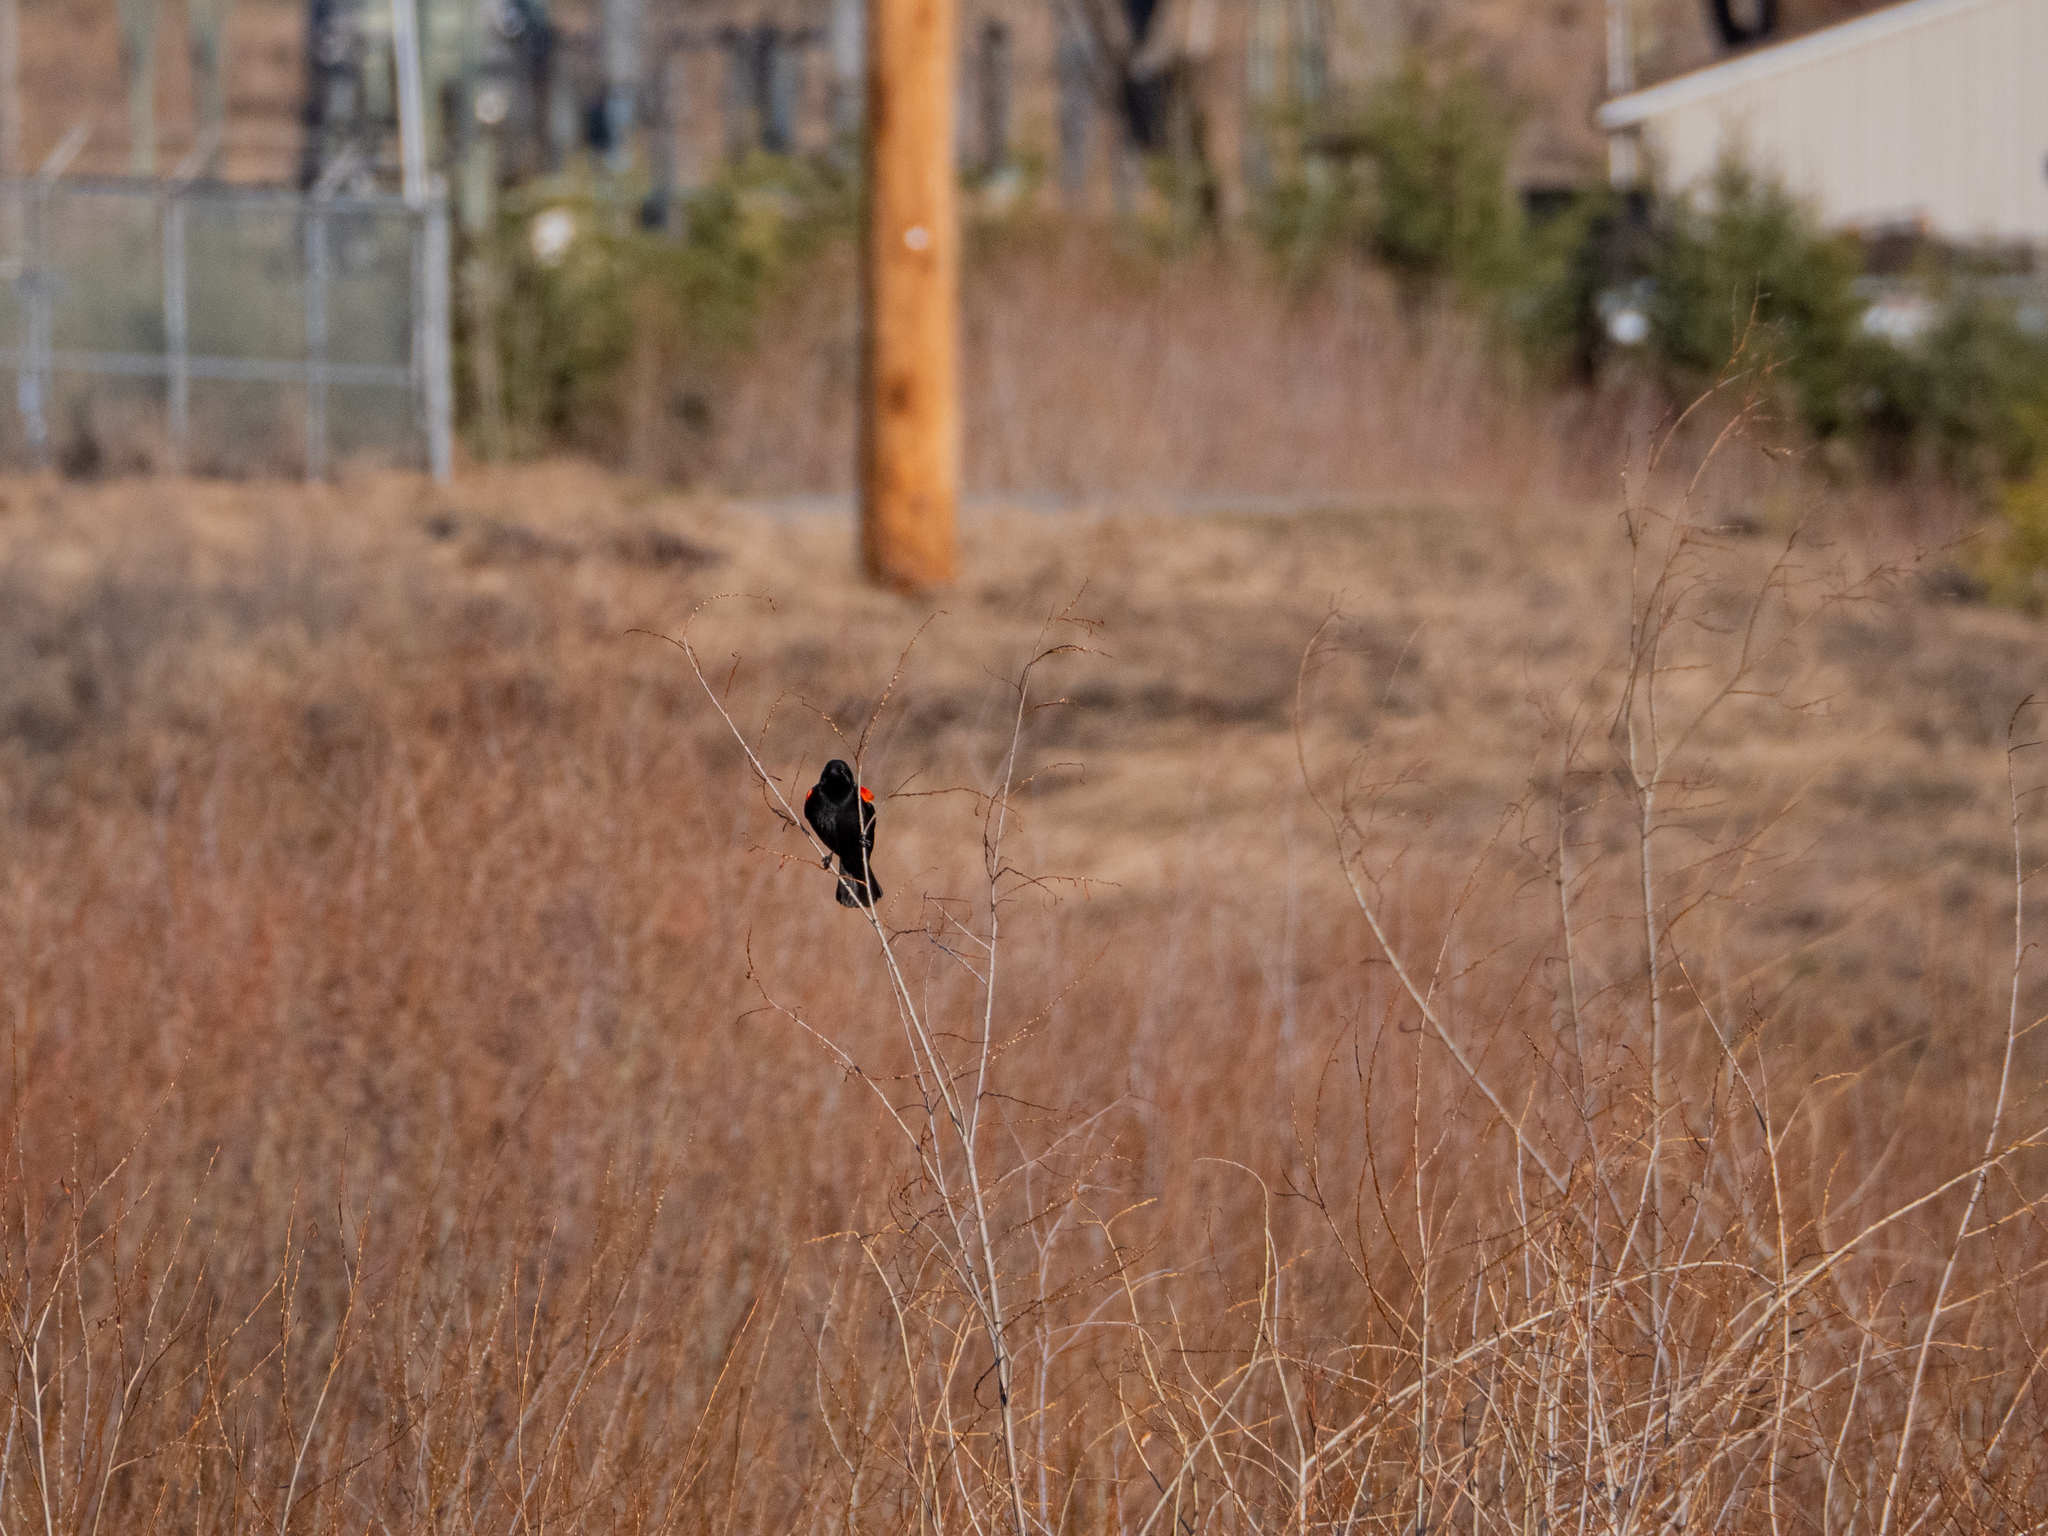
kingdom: Animalia
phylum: Chordata
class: Aves
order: Passeriformes
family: Icteridae
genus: Agelaius
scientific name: Agelaius phoeniceus
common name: Red-winged blackbird
